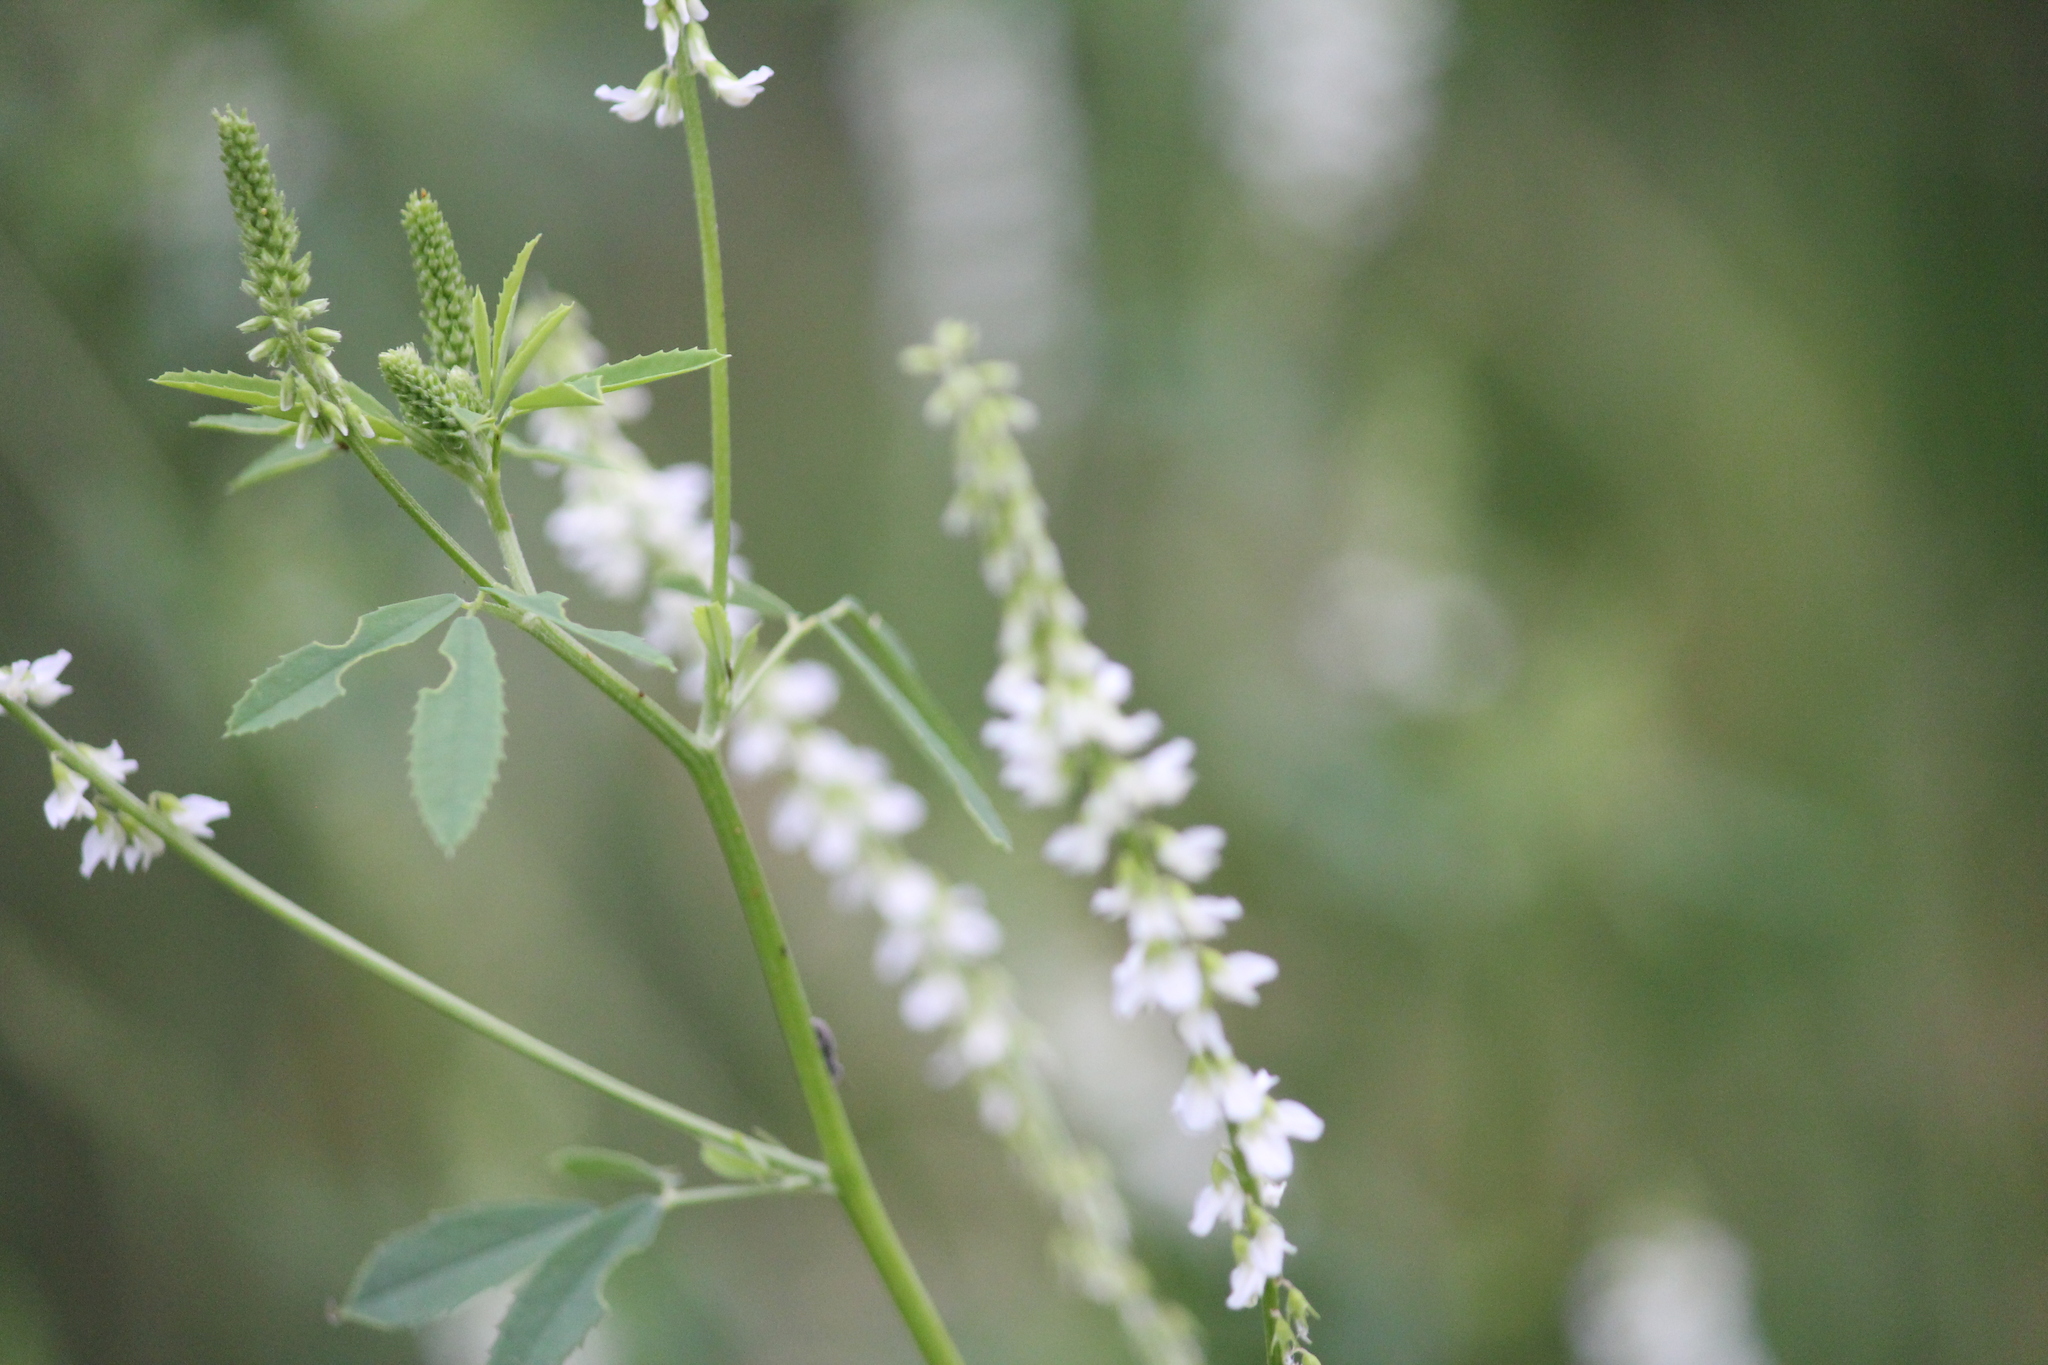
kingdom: Plantae
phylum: Tracheophyta
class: Magnoliopsida
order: Fabales
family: Fabaceae
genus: Melilotus
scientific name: Melilotus albus
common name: White melilot
